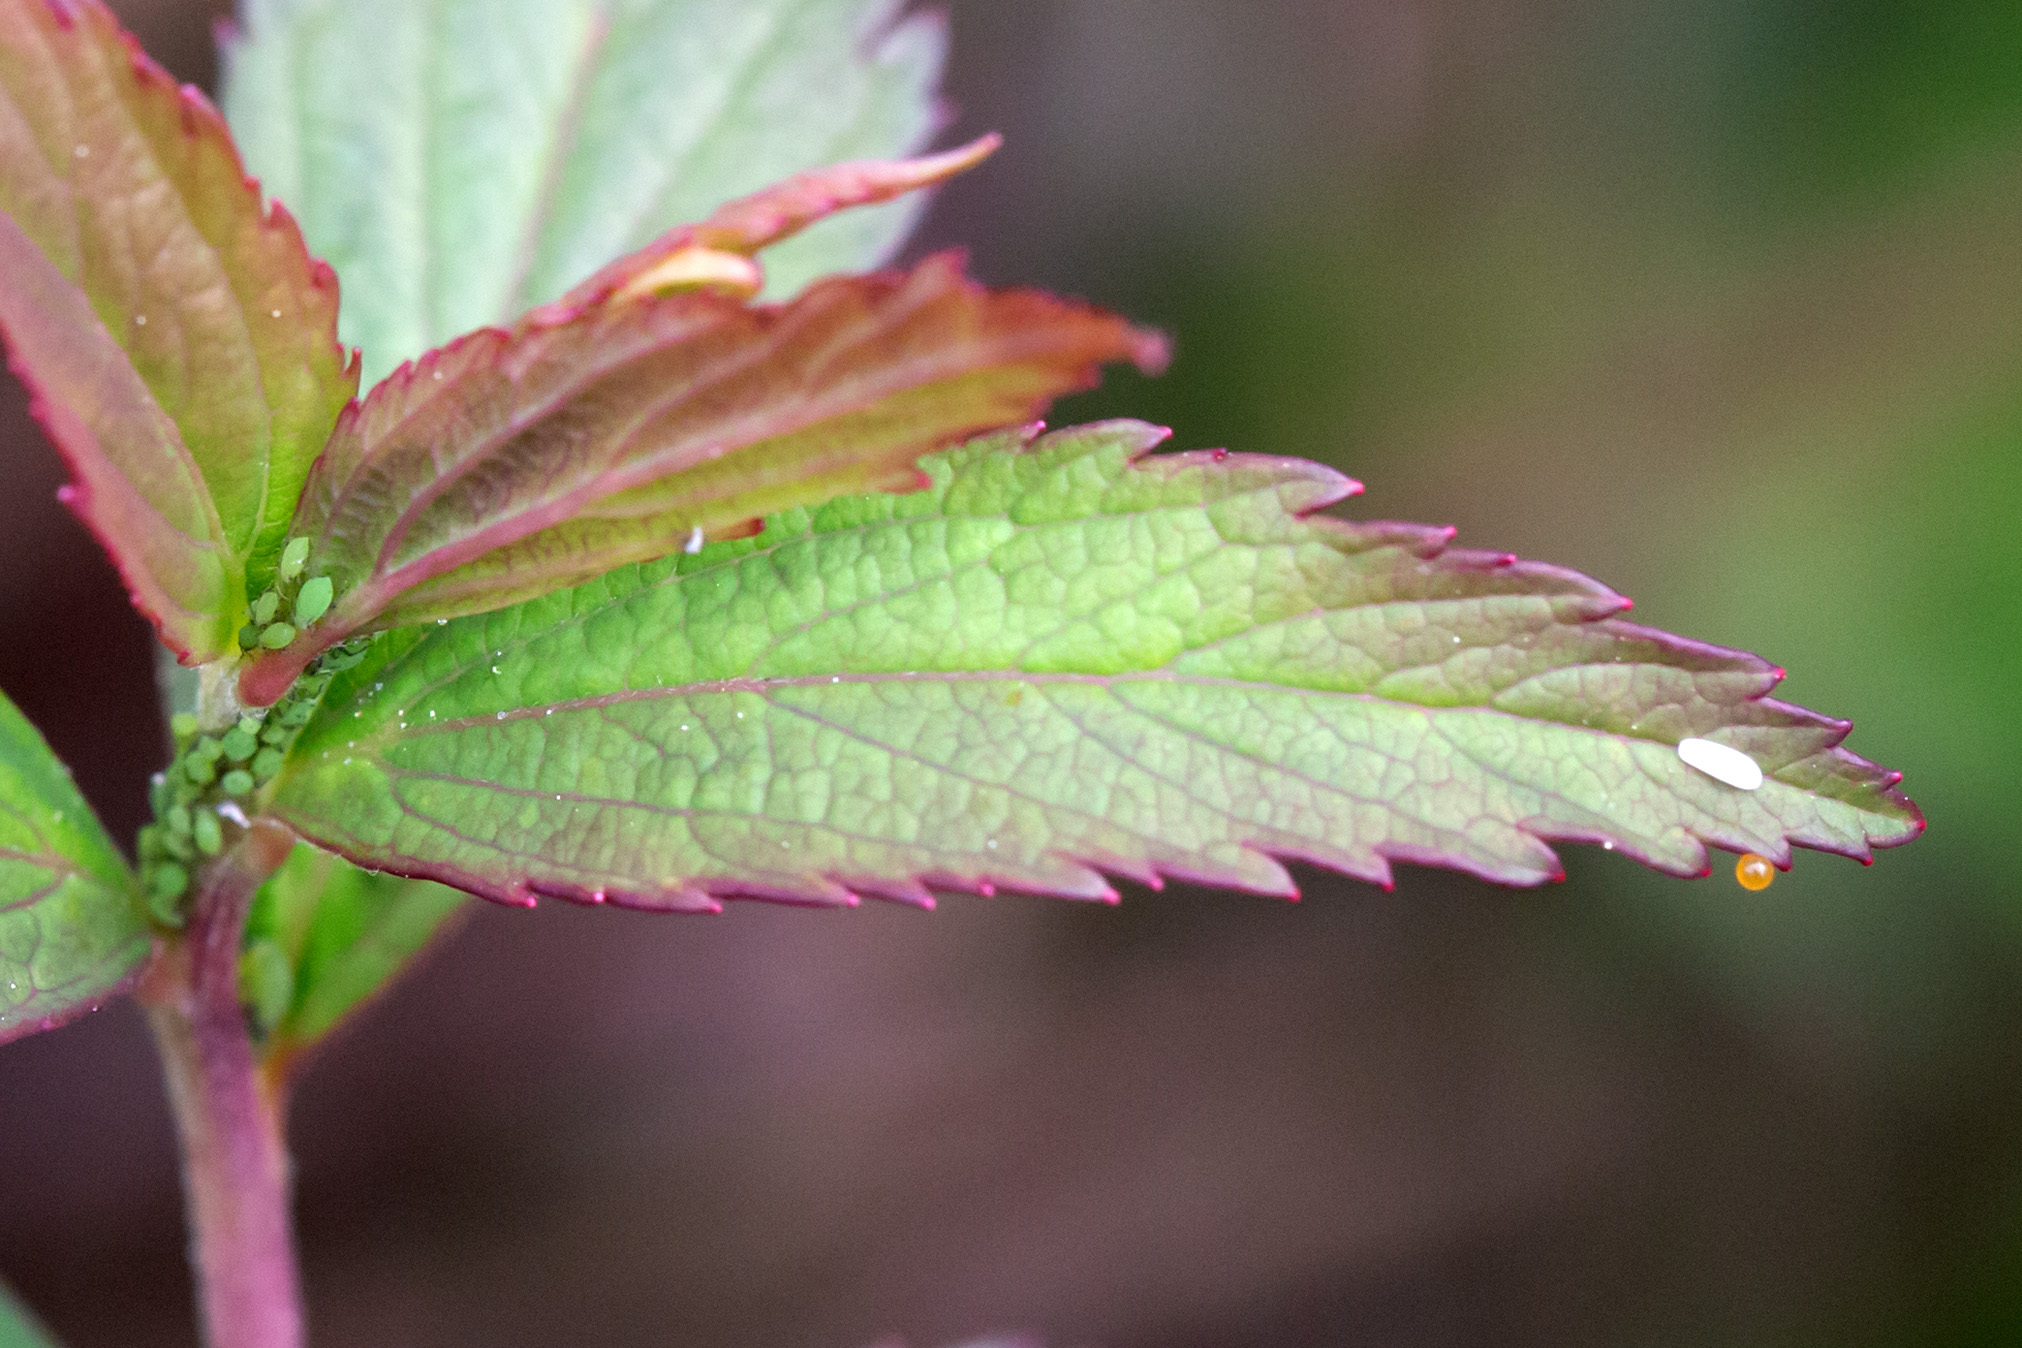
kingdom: Animalia
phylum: Arthropoda
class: Insecta
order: Diptera
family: Syrphidae
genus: Syrphus
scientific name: Syrphus torvus
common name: Hairy-eyed flower fly
